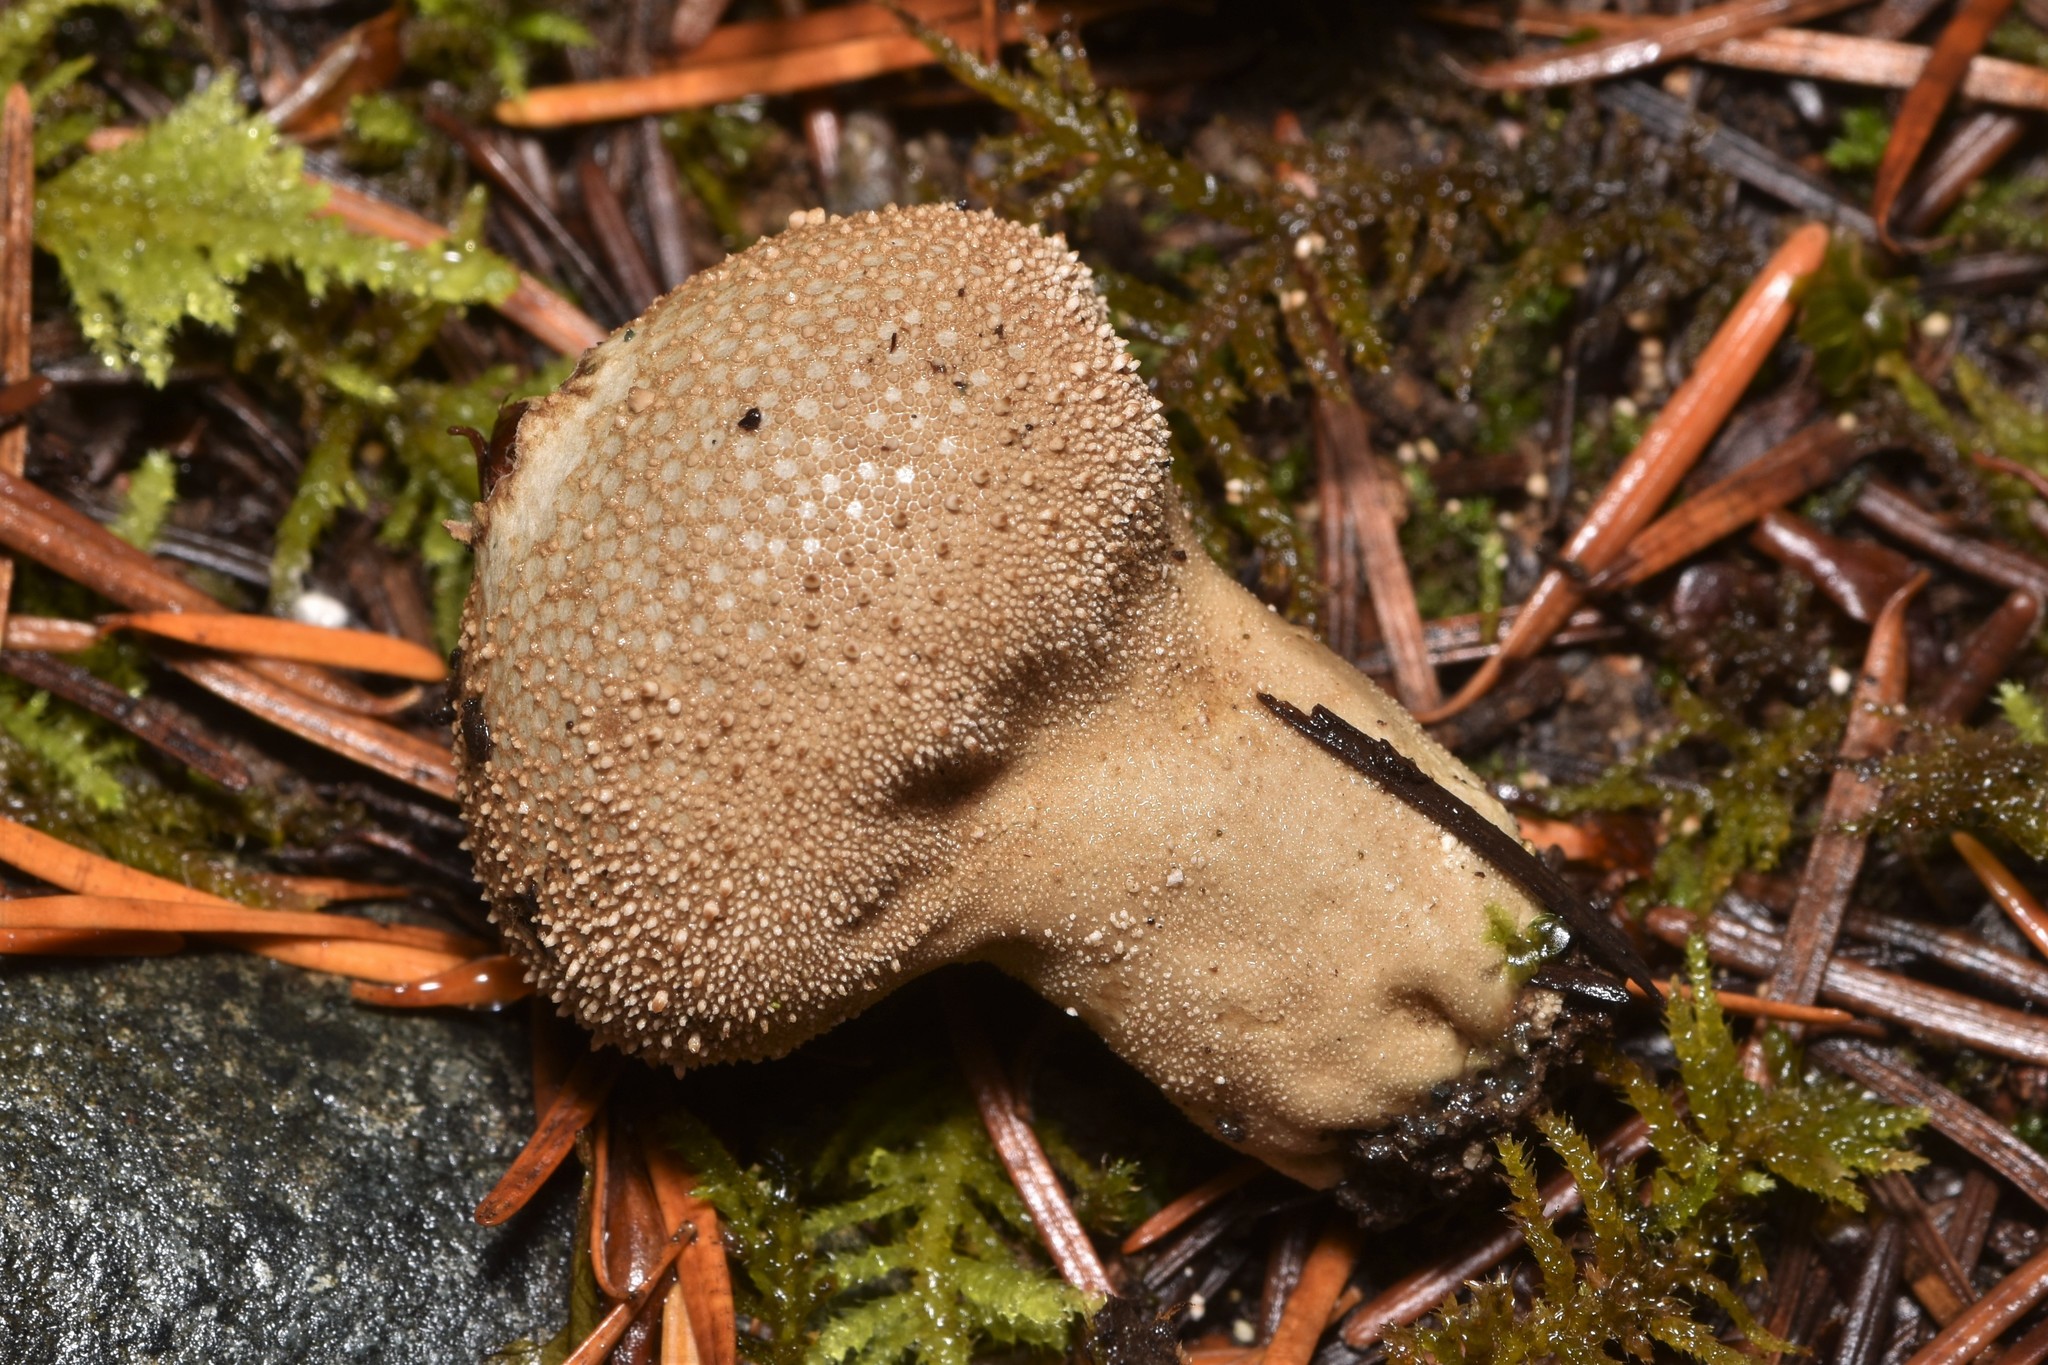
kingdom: Fungi
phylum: Basidiomycota
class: Agaricomycetes
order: Agaricales
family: Lycoperdaceae
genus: Lycoperdon
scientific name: Lycoperdon perlatum
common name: Common puffball
